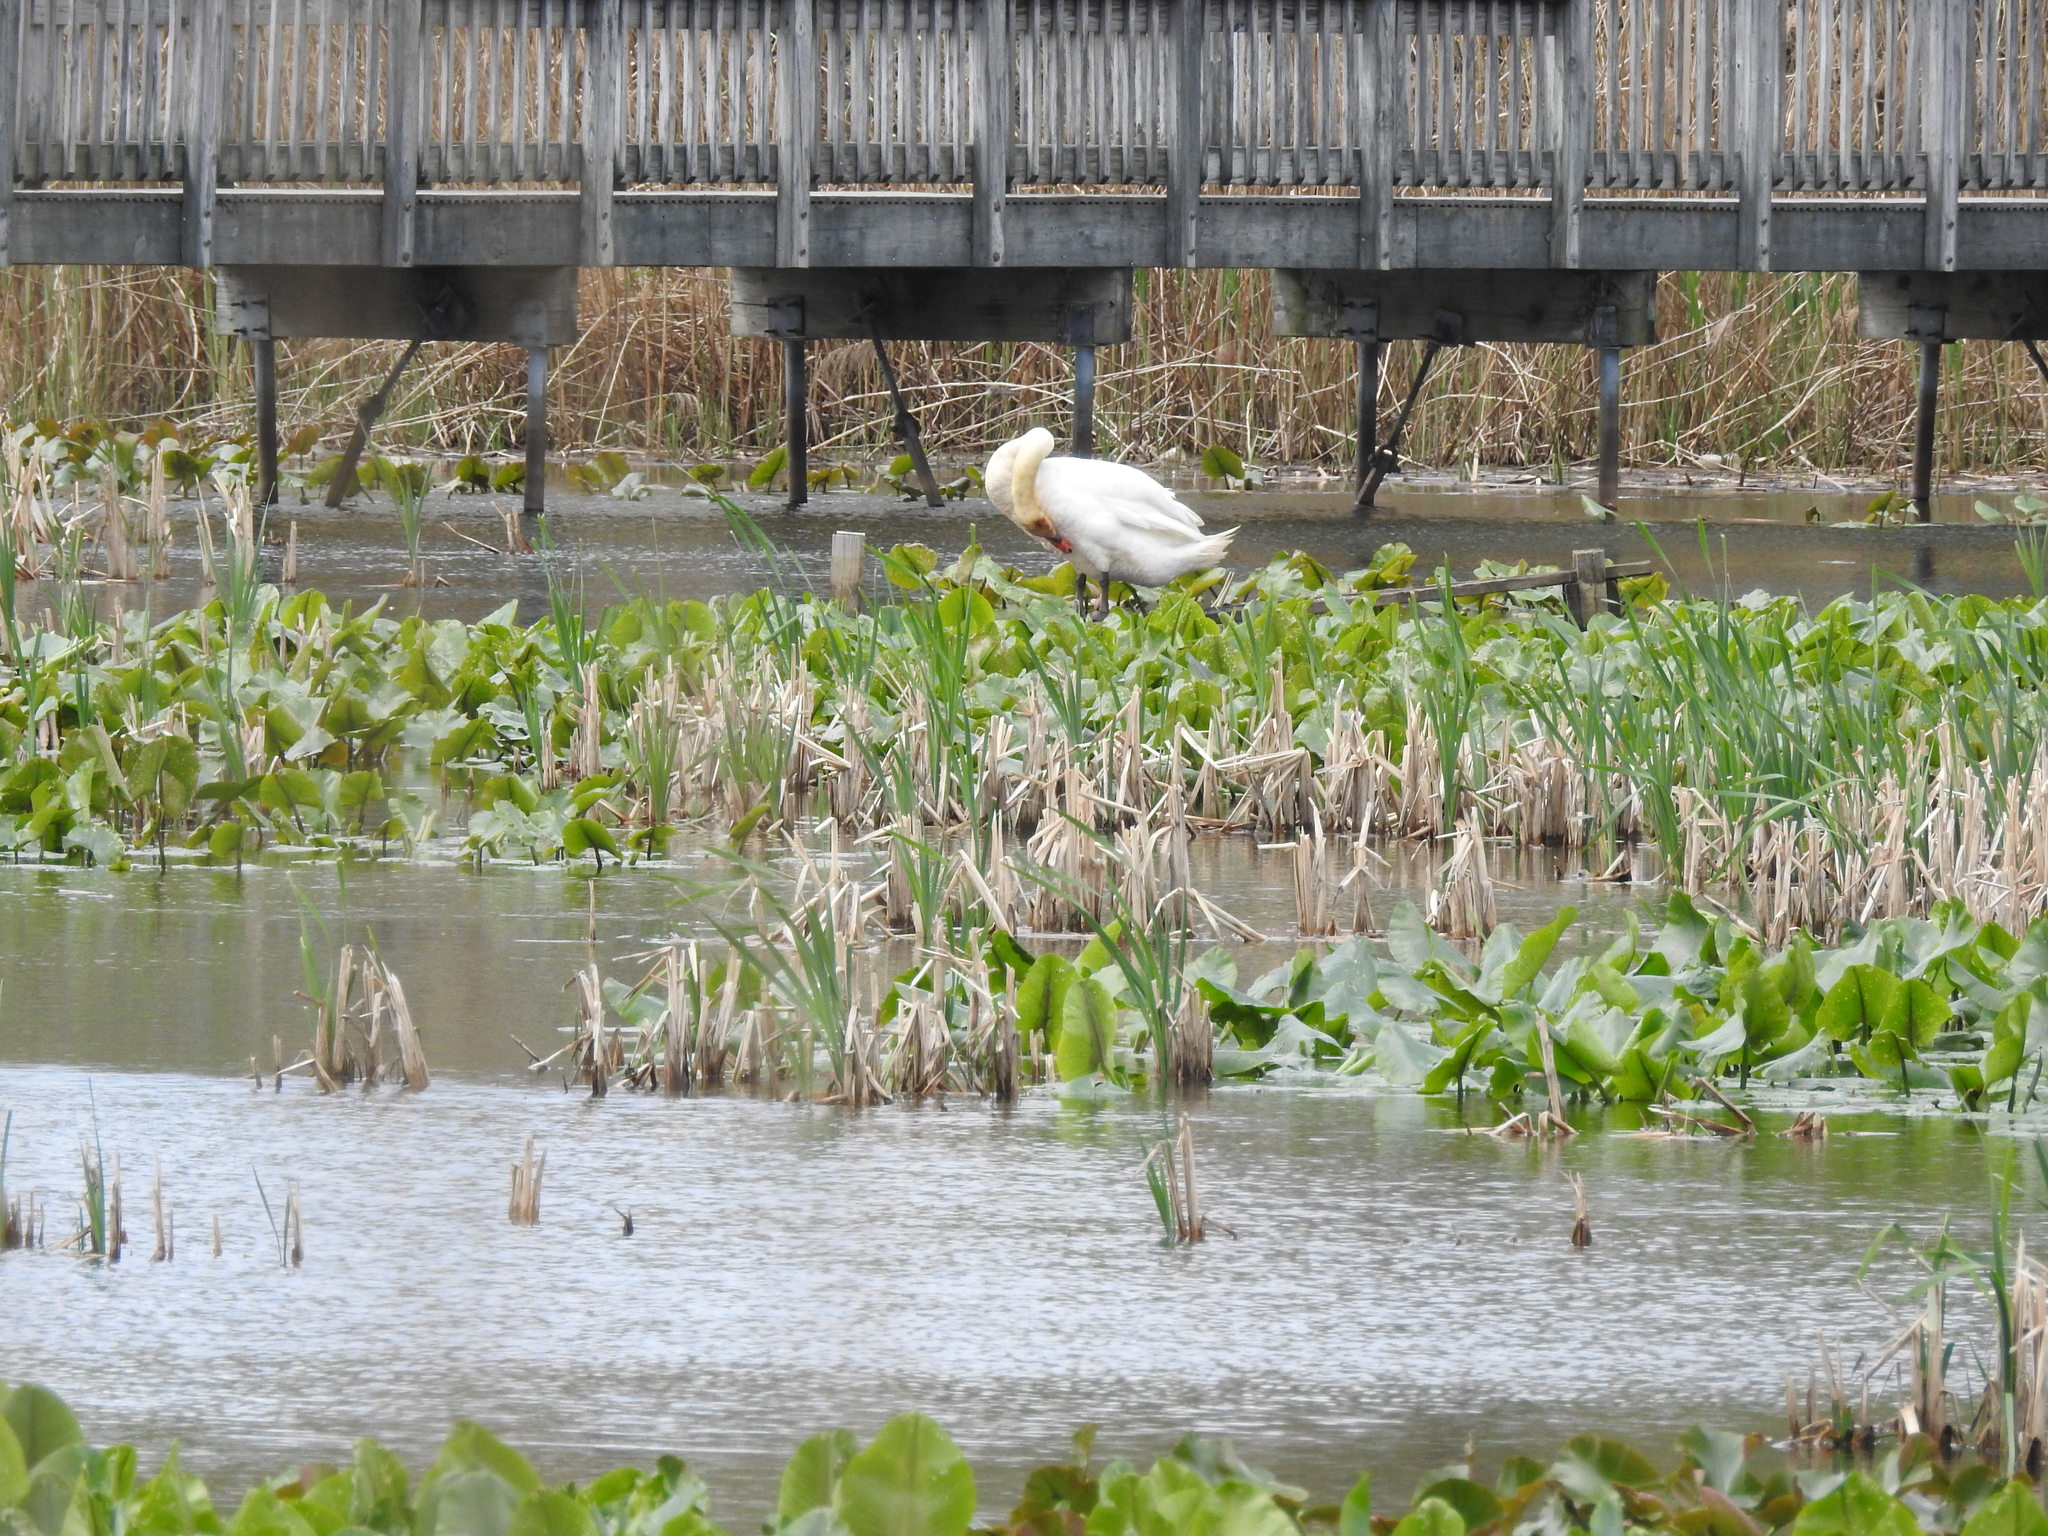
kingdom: Animalia
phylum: Chordata
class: Aves
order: Anseriformes
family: Anatidae
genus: Cygnus
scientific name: Cygnus olor
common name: Mute swan
